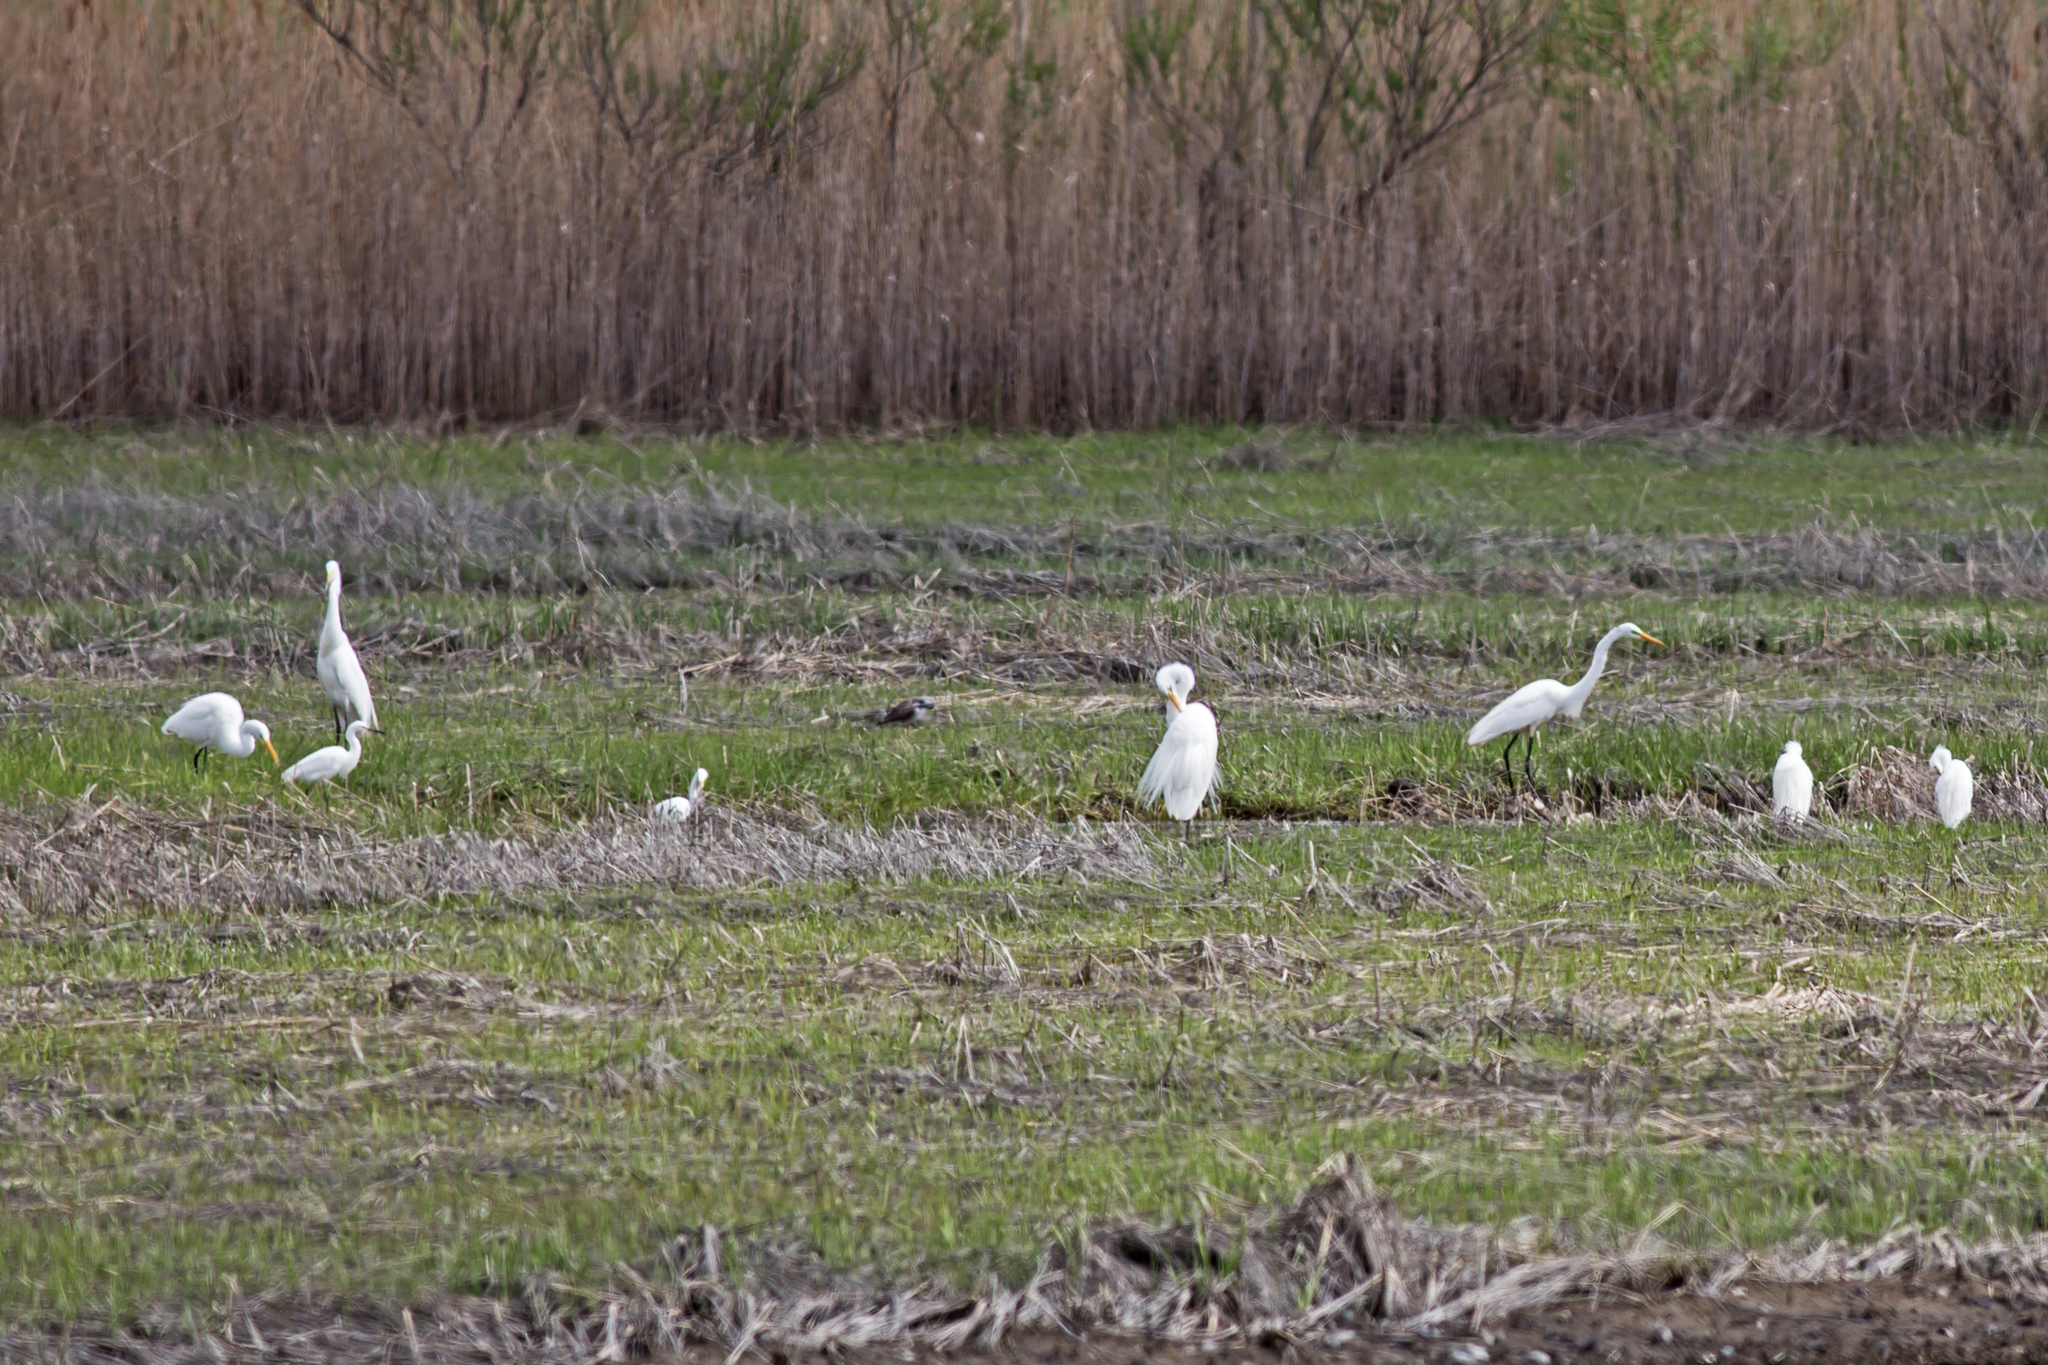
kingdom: Animalia
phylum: Chordata
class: Aves
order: Pelecaniformes
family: Ardeidae
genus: Ardea
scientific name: Ardea alba
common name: Great egret
